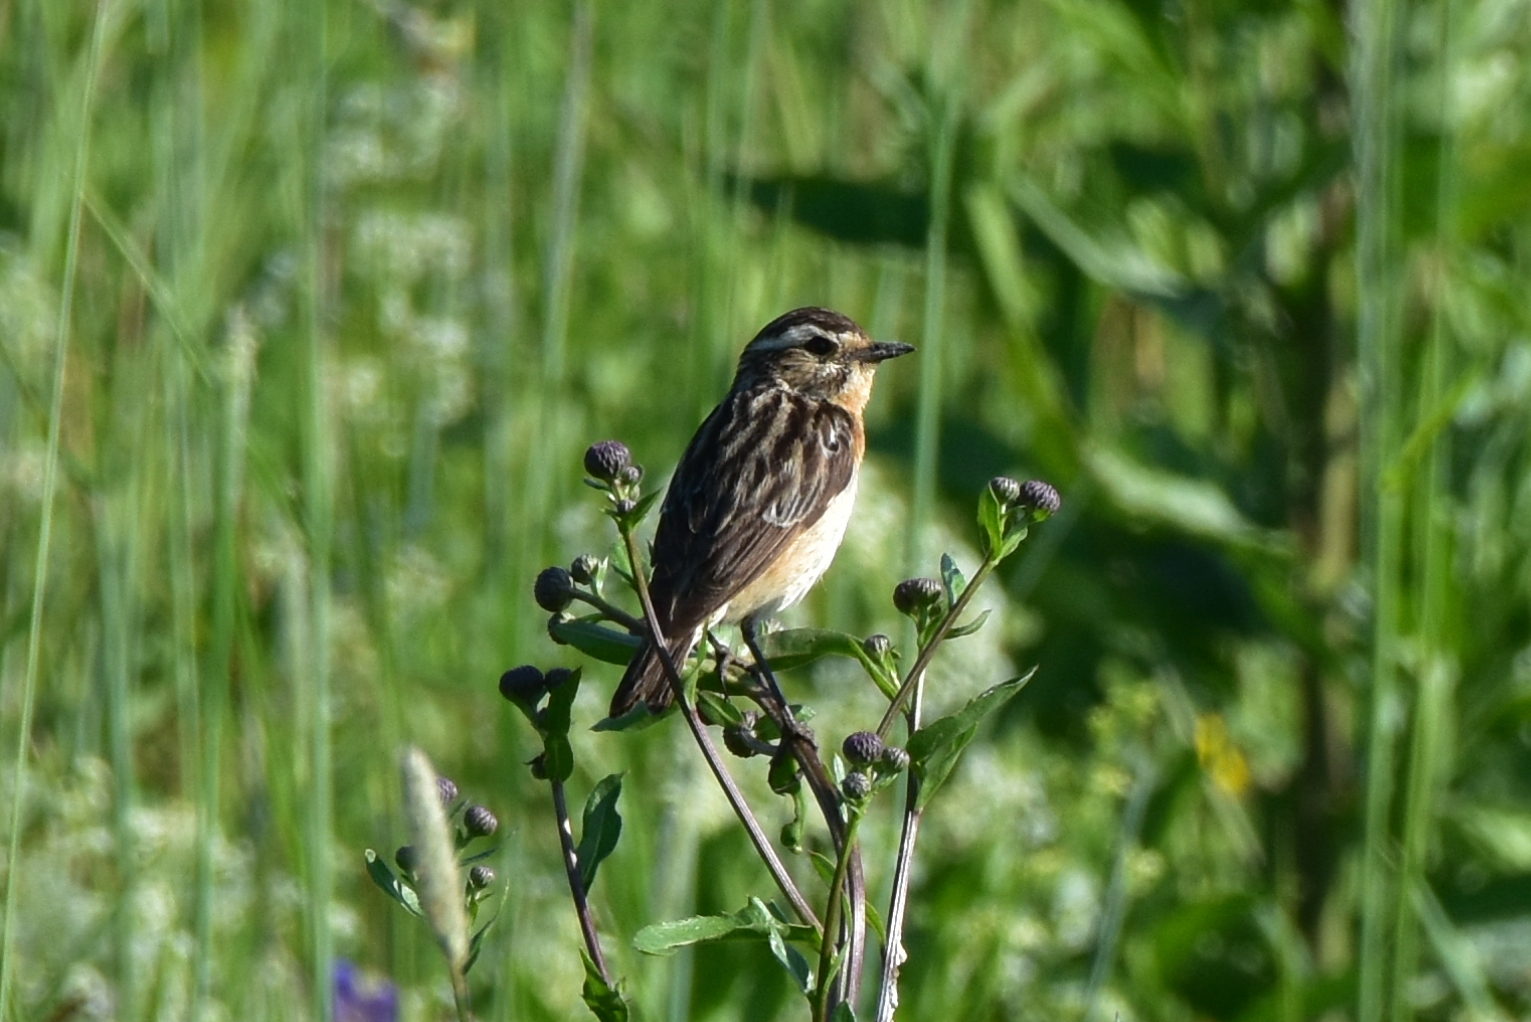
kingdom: Animalia
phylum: Chordata
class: Aves
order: Passeriformes
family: Muscicapidae
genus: Saxicola
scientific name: Saxicola rubetra
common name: Whinchat
